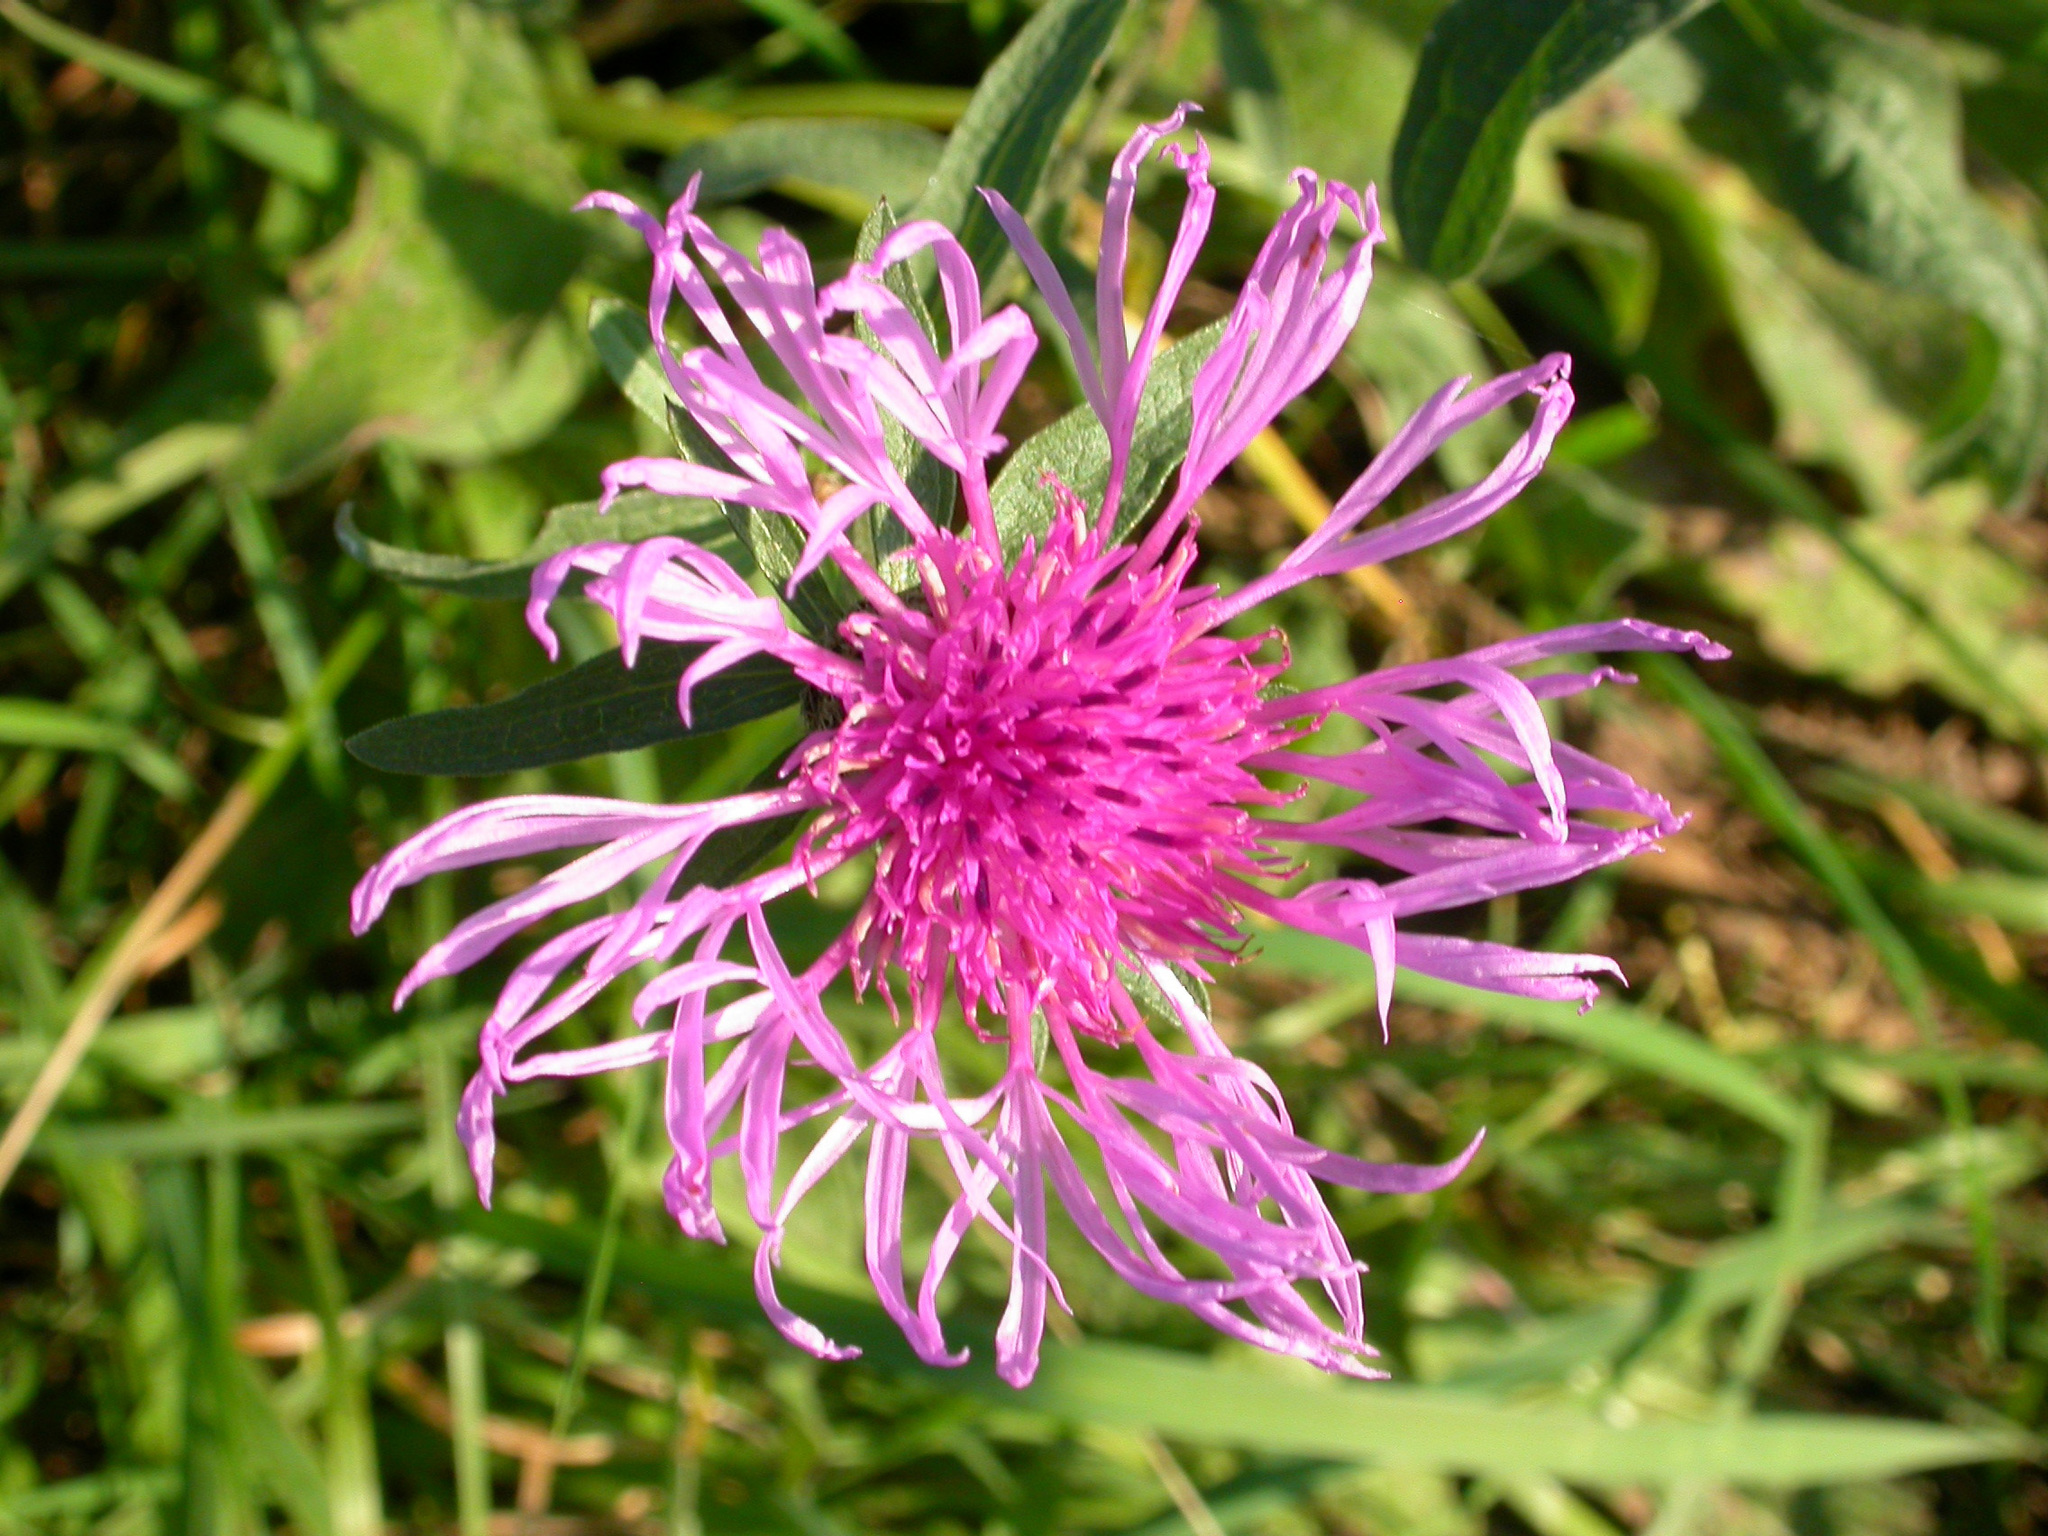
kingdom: Plantae
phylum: Tracheophyta
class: Magnoliopsida
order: Asterales
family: Asteraceae
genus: Centaurea
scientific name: Centaurea jacea
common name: Brown knapweed
